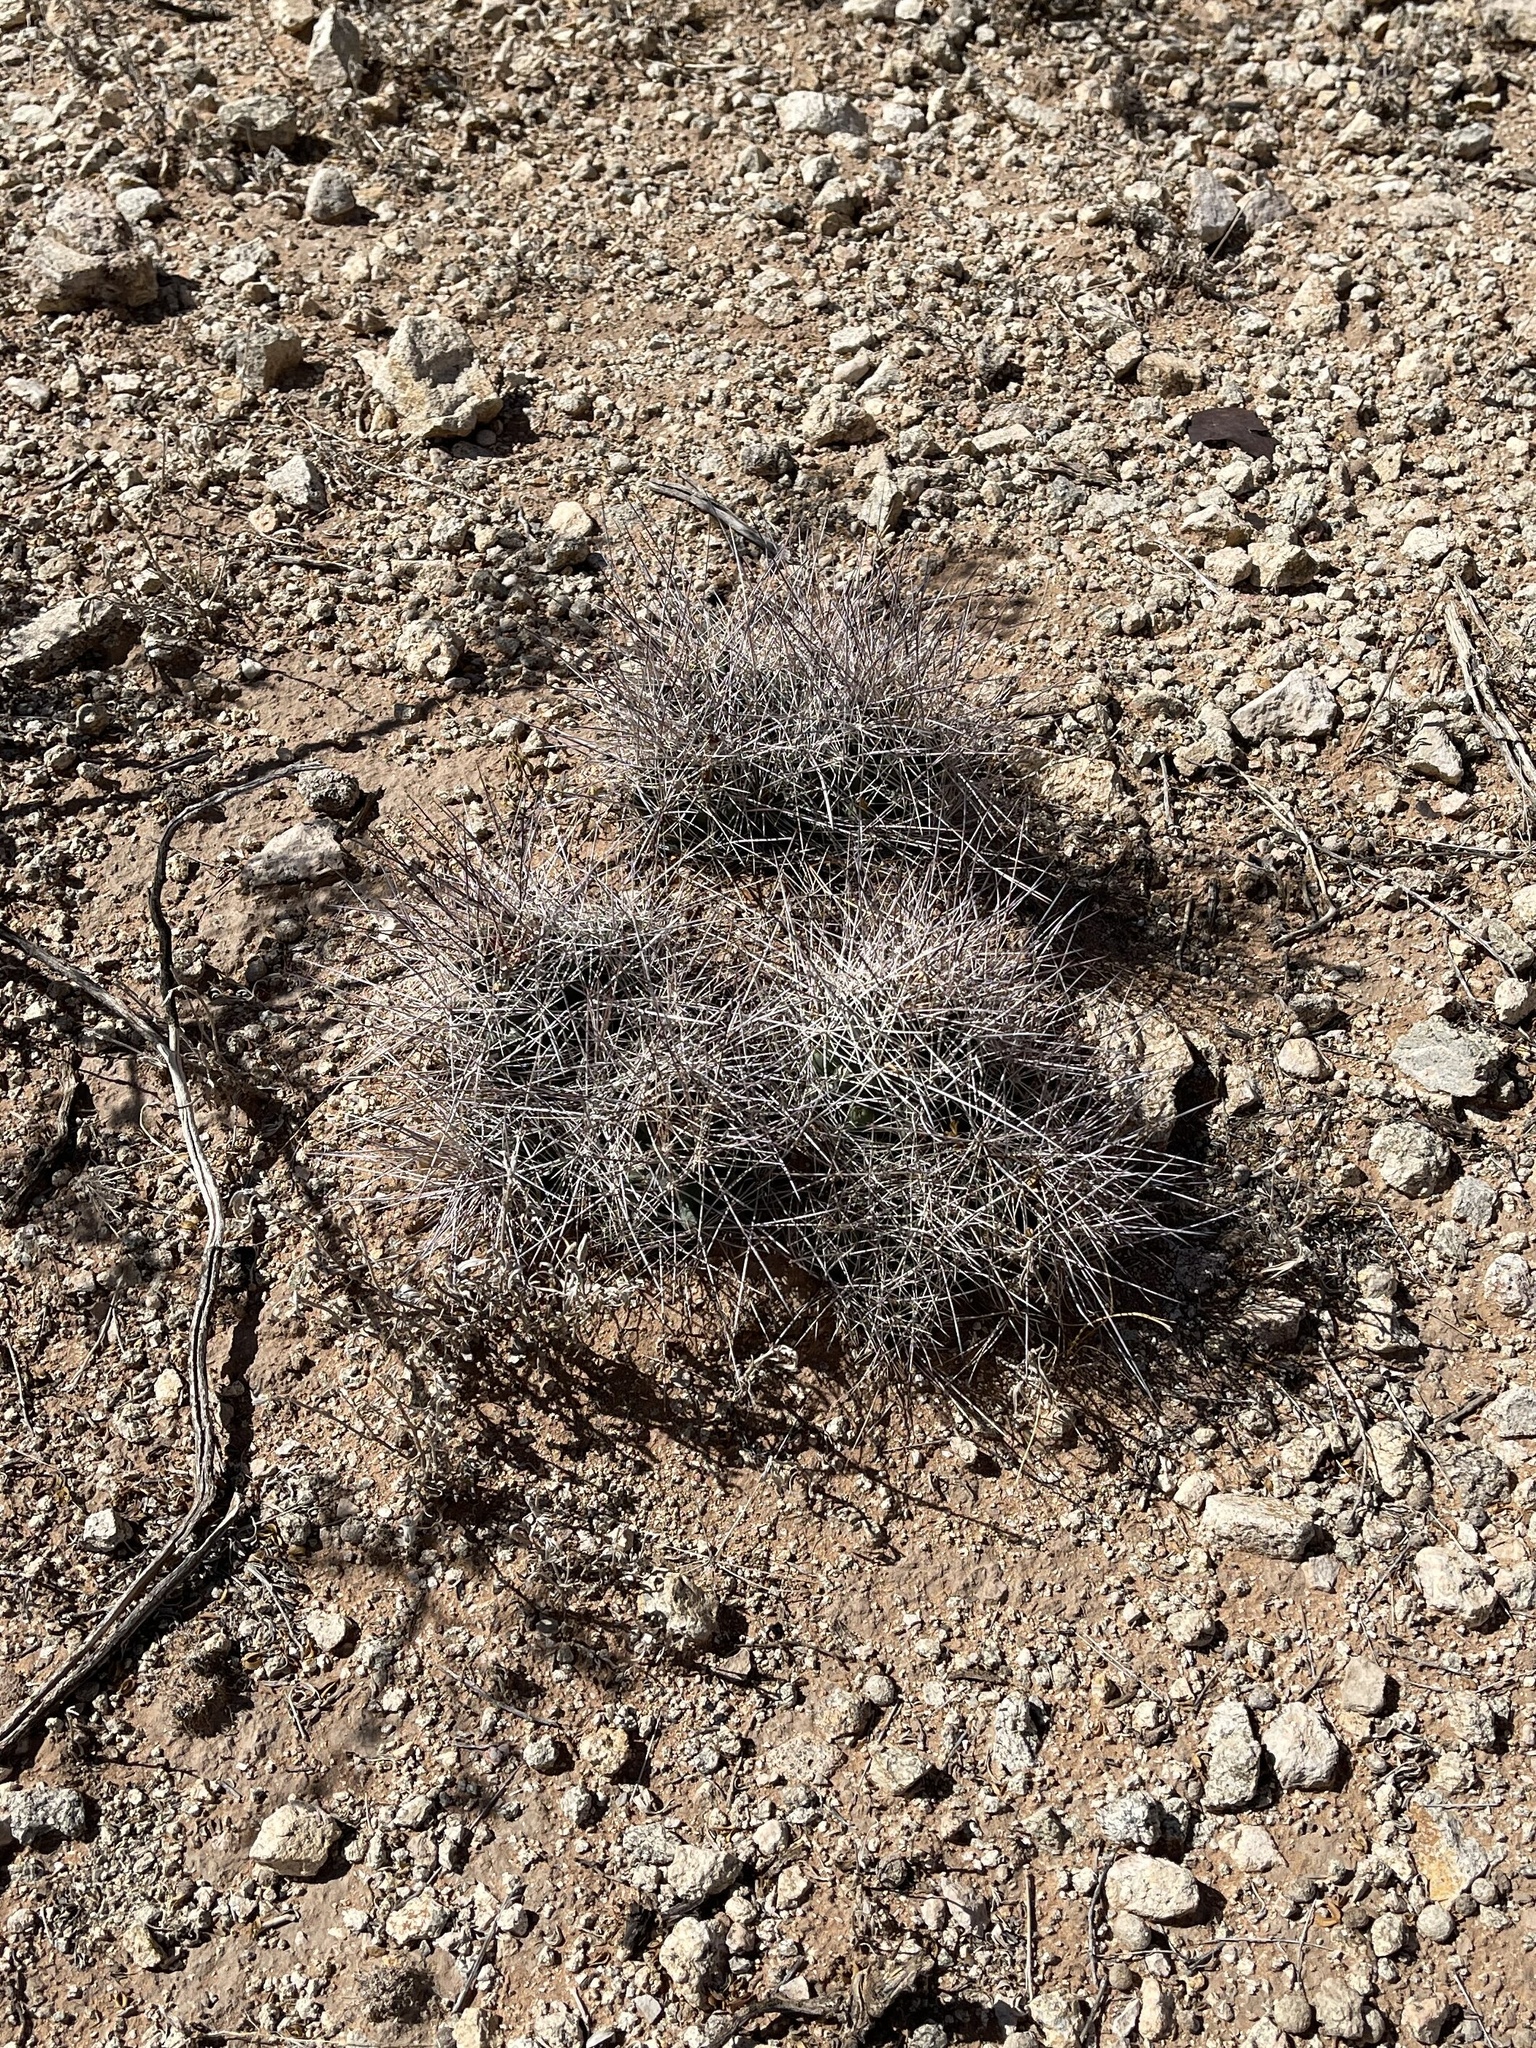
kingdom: Plantae
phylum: Tracheophyta
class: Magnoliopsida
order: Caryophyllales
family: Cactaceae
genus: Coryphantha
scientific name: Coryphantha macromeris
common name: Nipple beehive cactus
